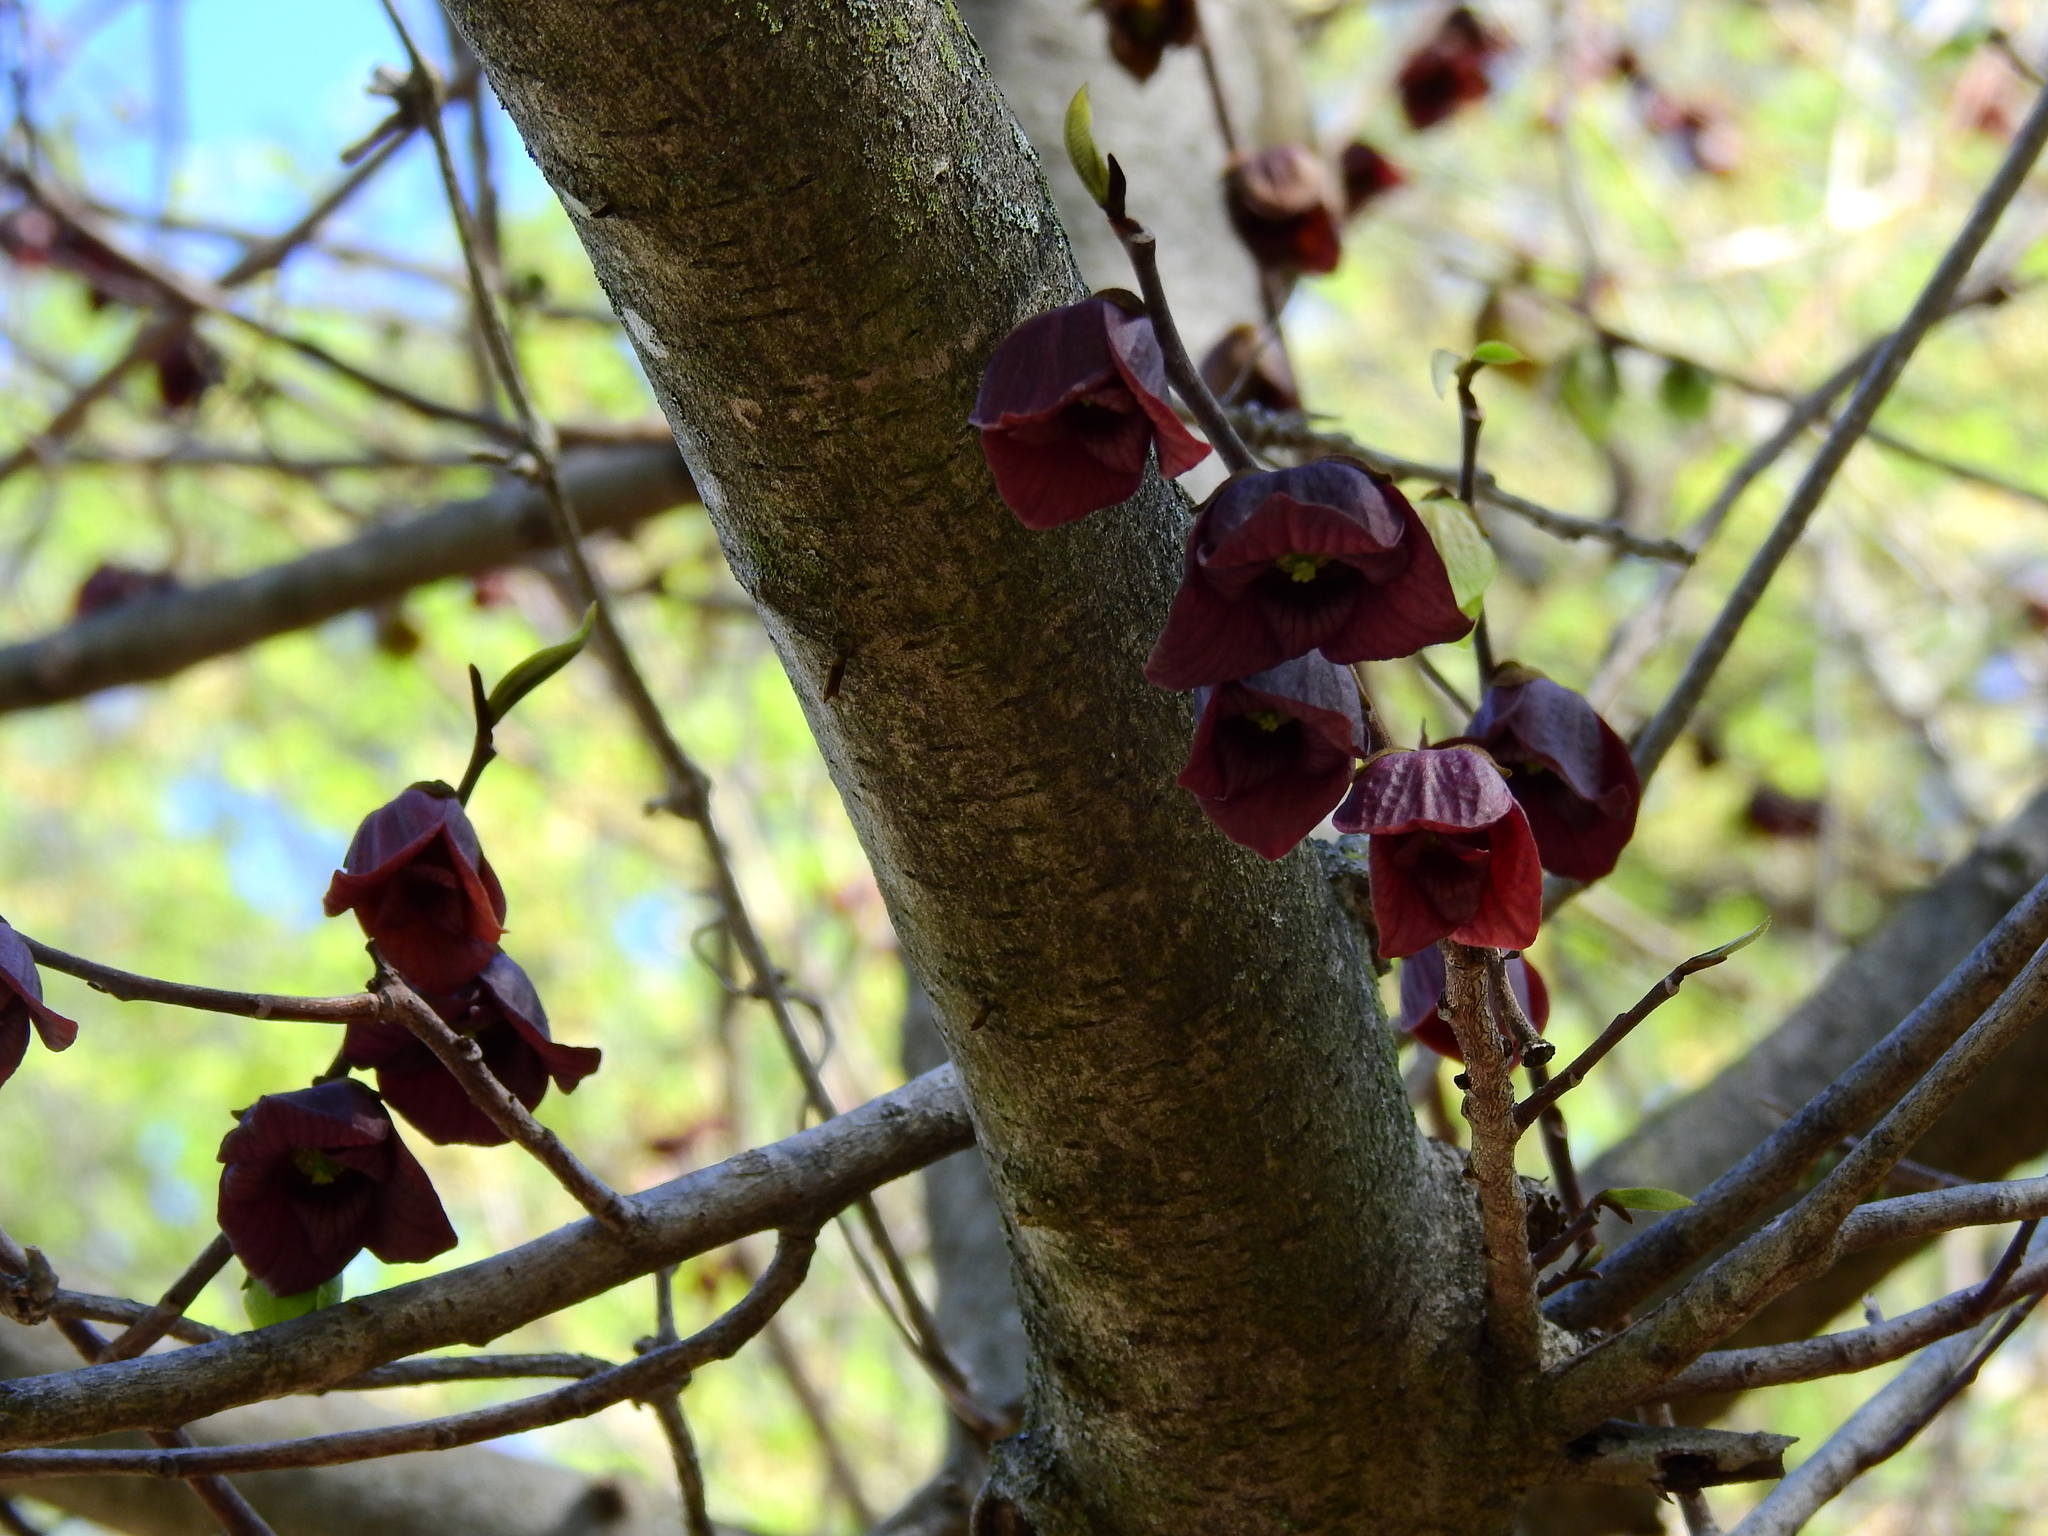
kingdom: Plantae
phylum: Tracheophyta
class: Magnoliopsida
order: Magnoliales
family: Annonaceae
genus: Asimina
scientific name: Asimina triloba
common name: Dog-banana
